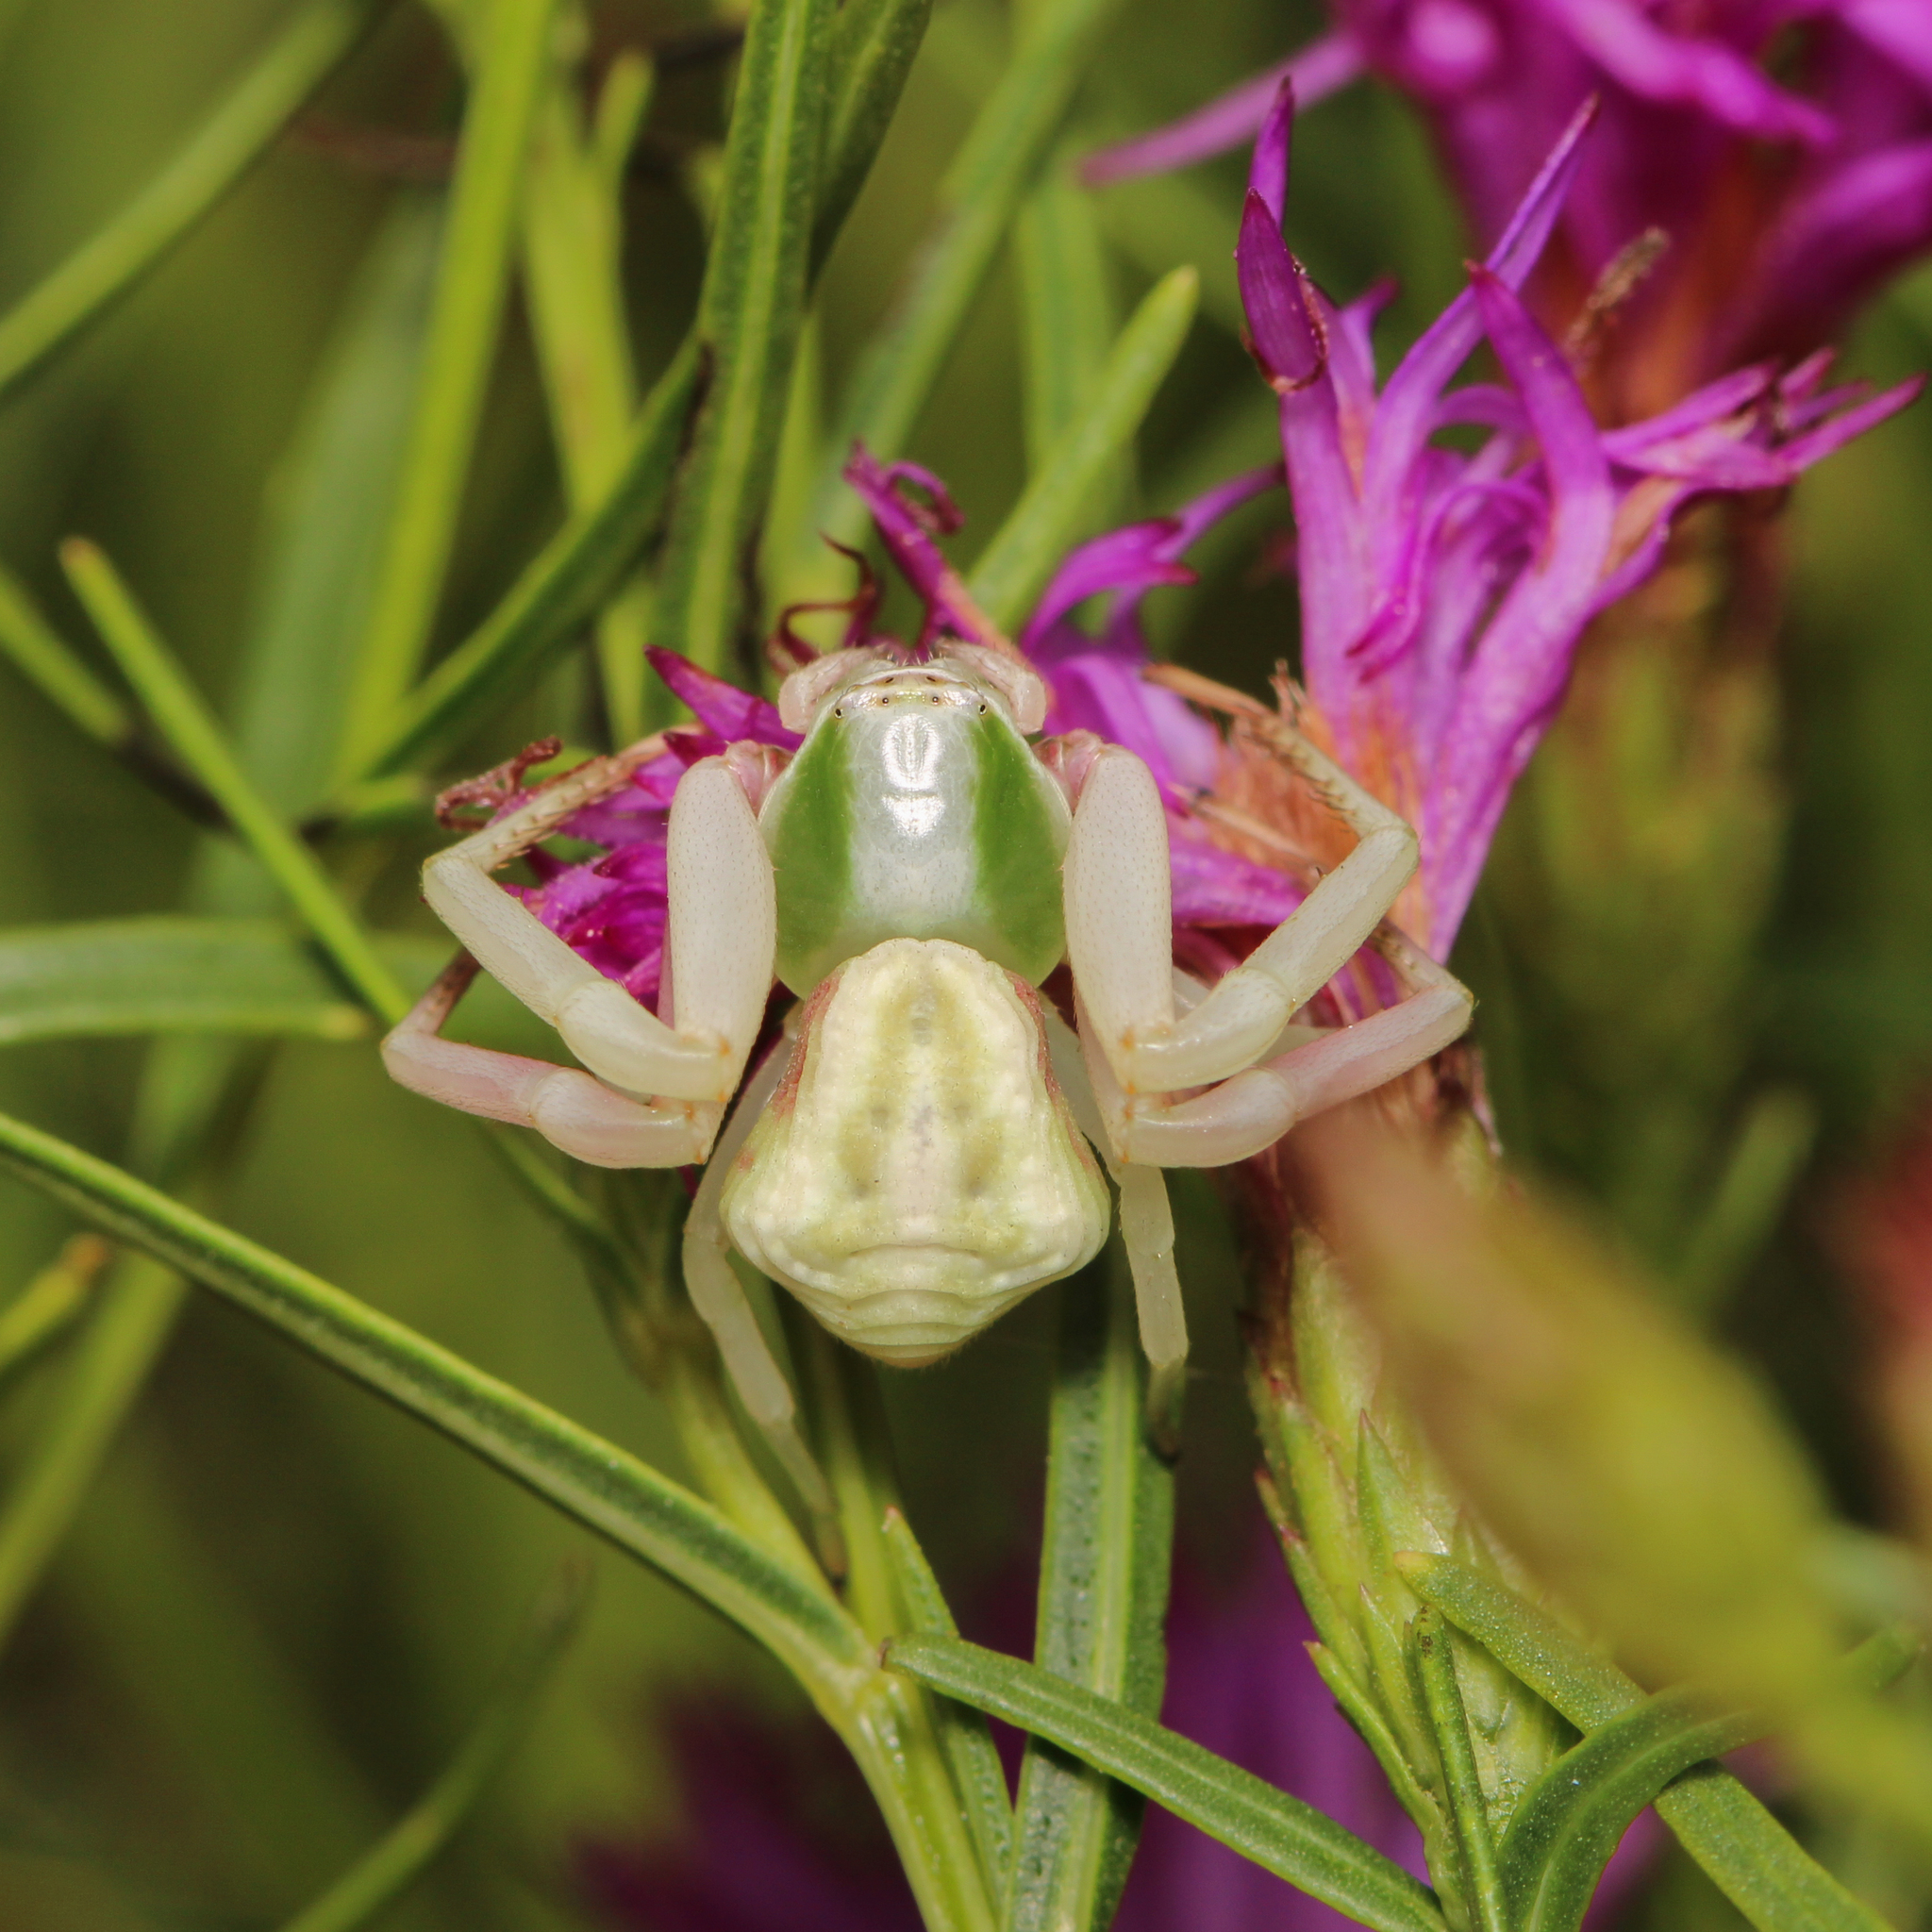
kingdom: Animalia
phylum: Arthropoda
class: Arachnida
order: Araneae
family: Thomisidae
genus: Misumenoides
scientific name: Misumenoides formosipes
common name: White-banded crab spider
